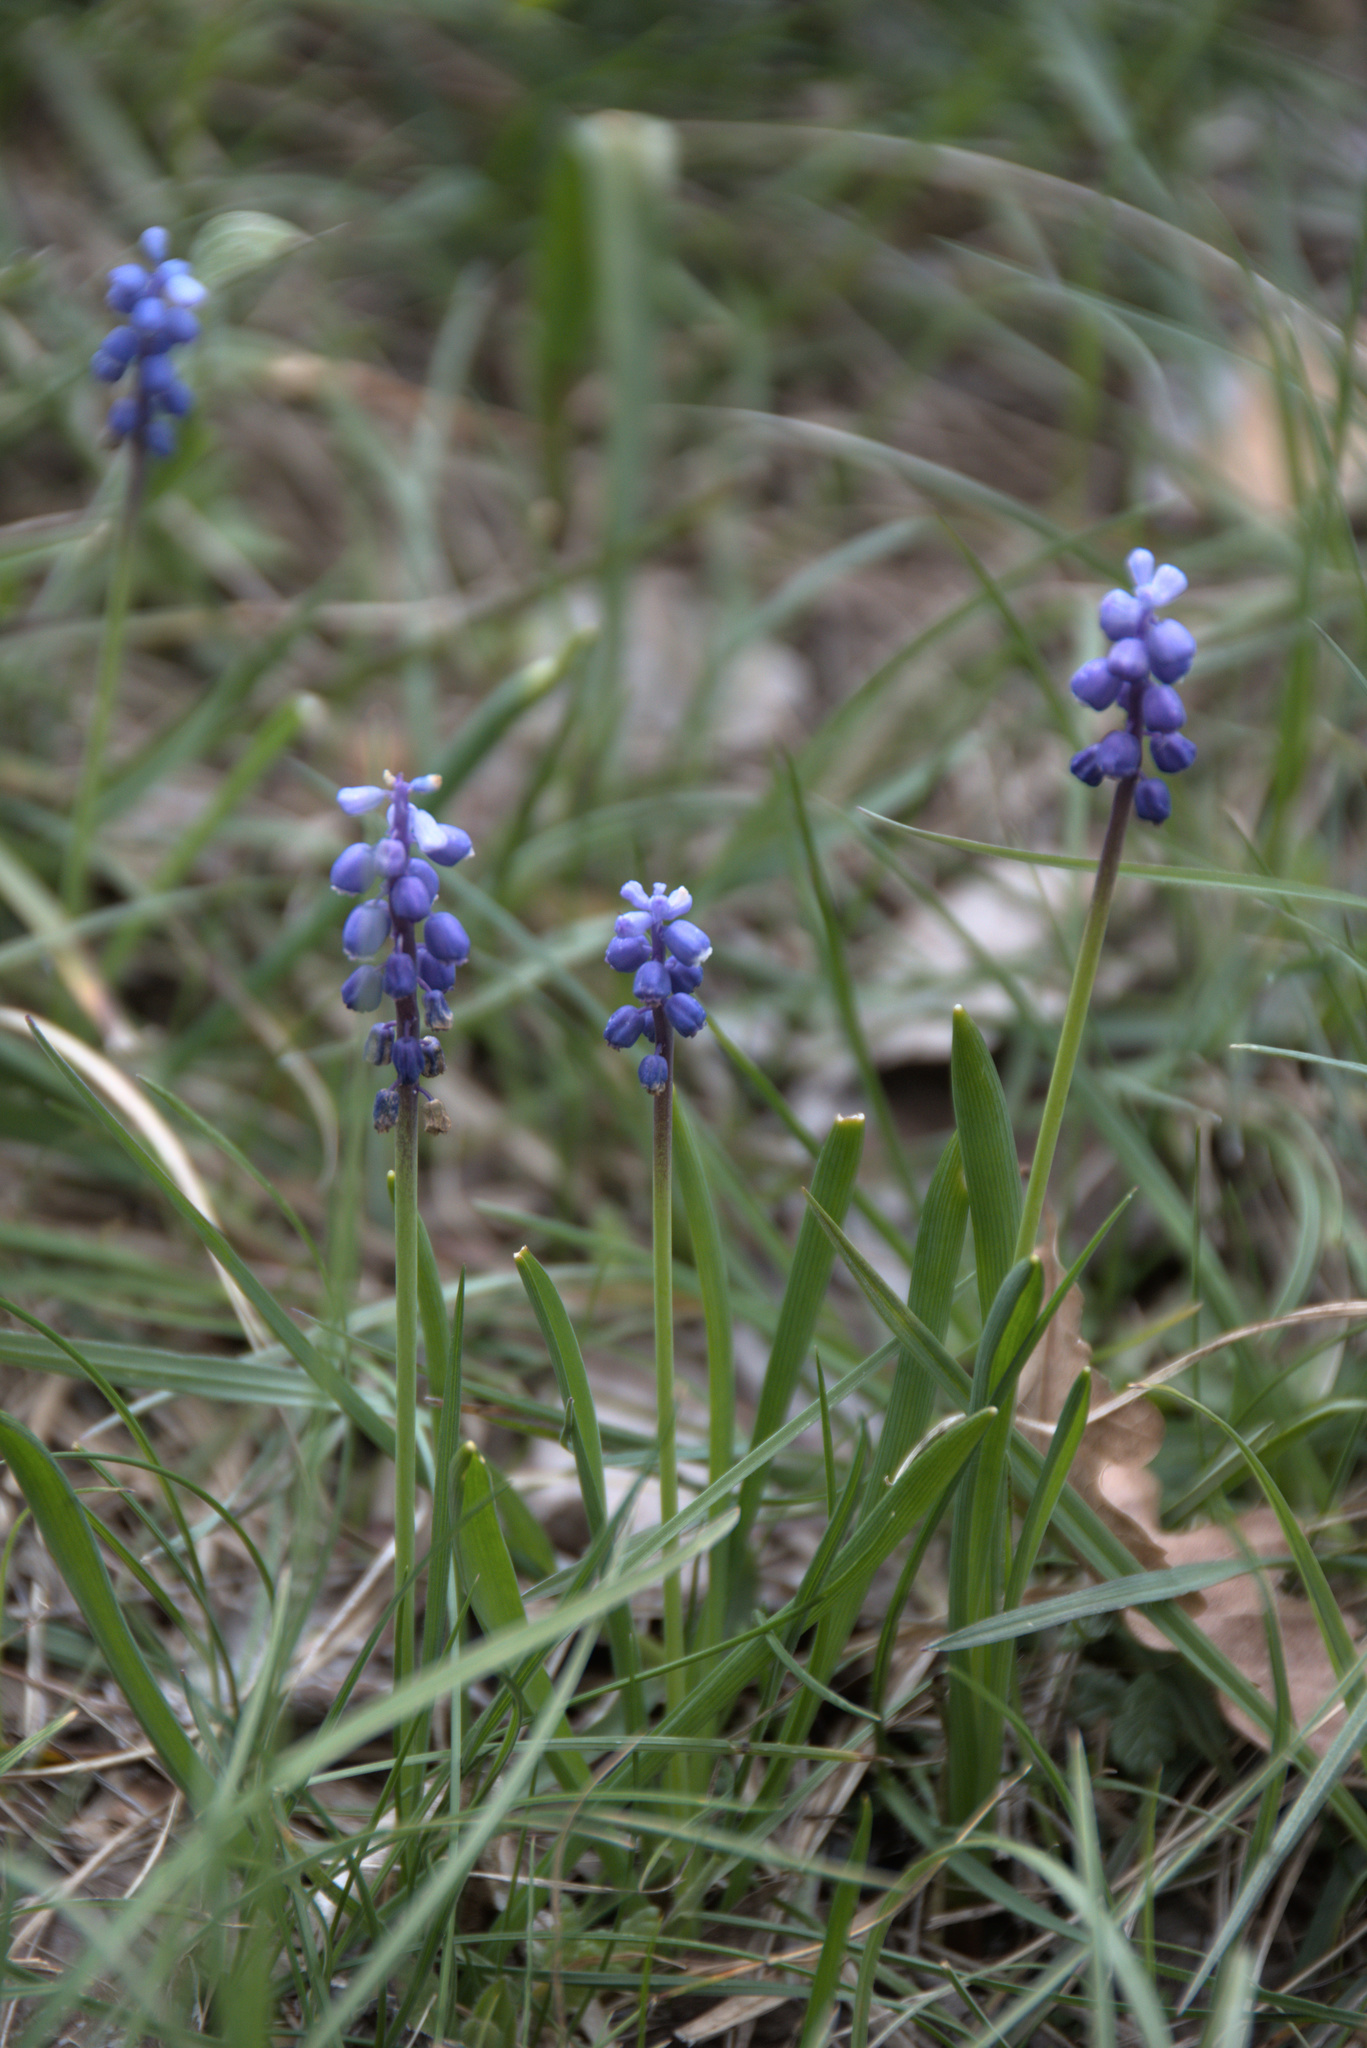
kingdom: Plantae
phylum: Tracheophyta
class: Liliopsida
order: Asparagales
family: Asparagaceae
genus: Muscari
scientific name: Muscari botryoides
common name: Compact grape-hyacinth
